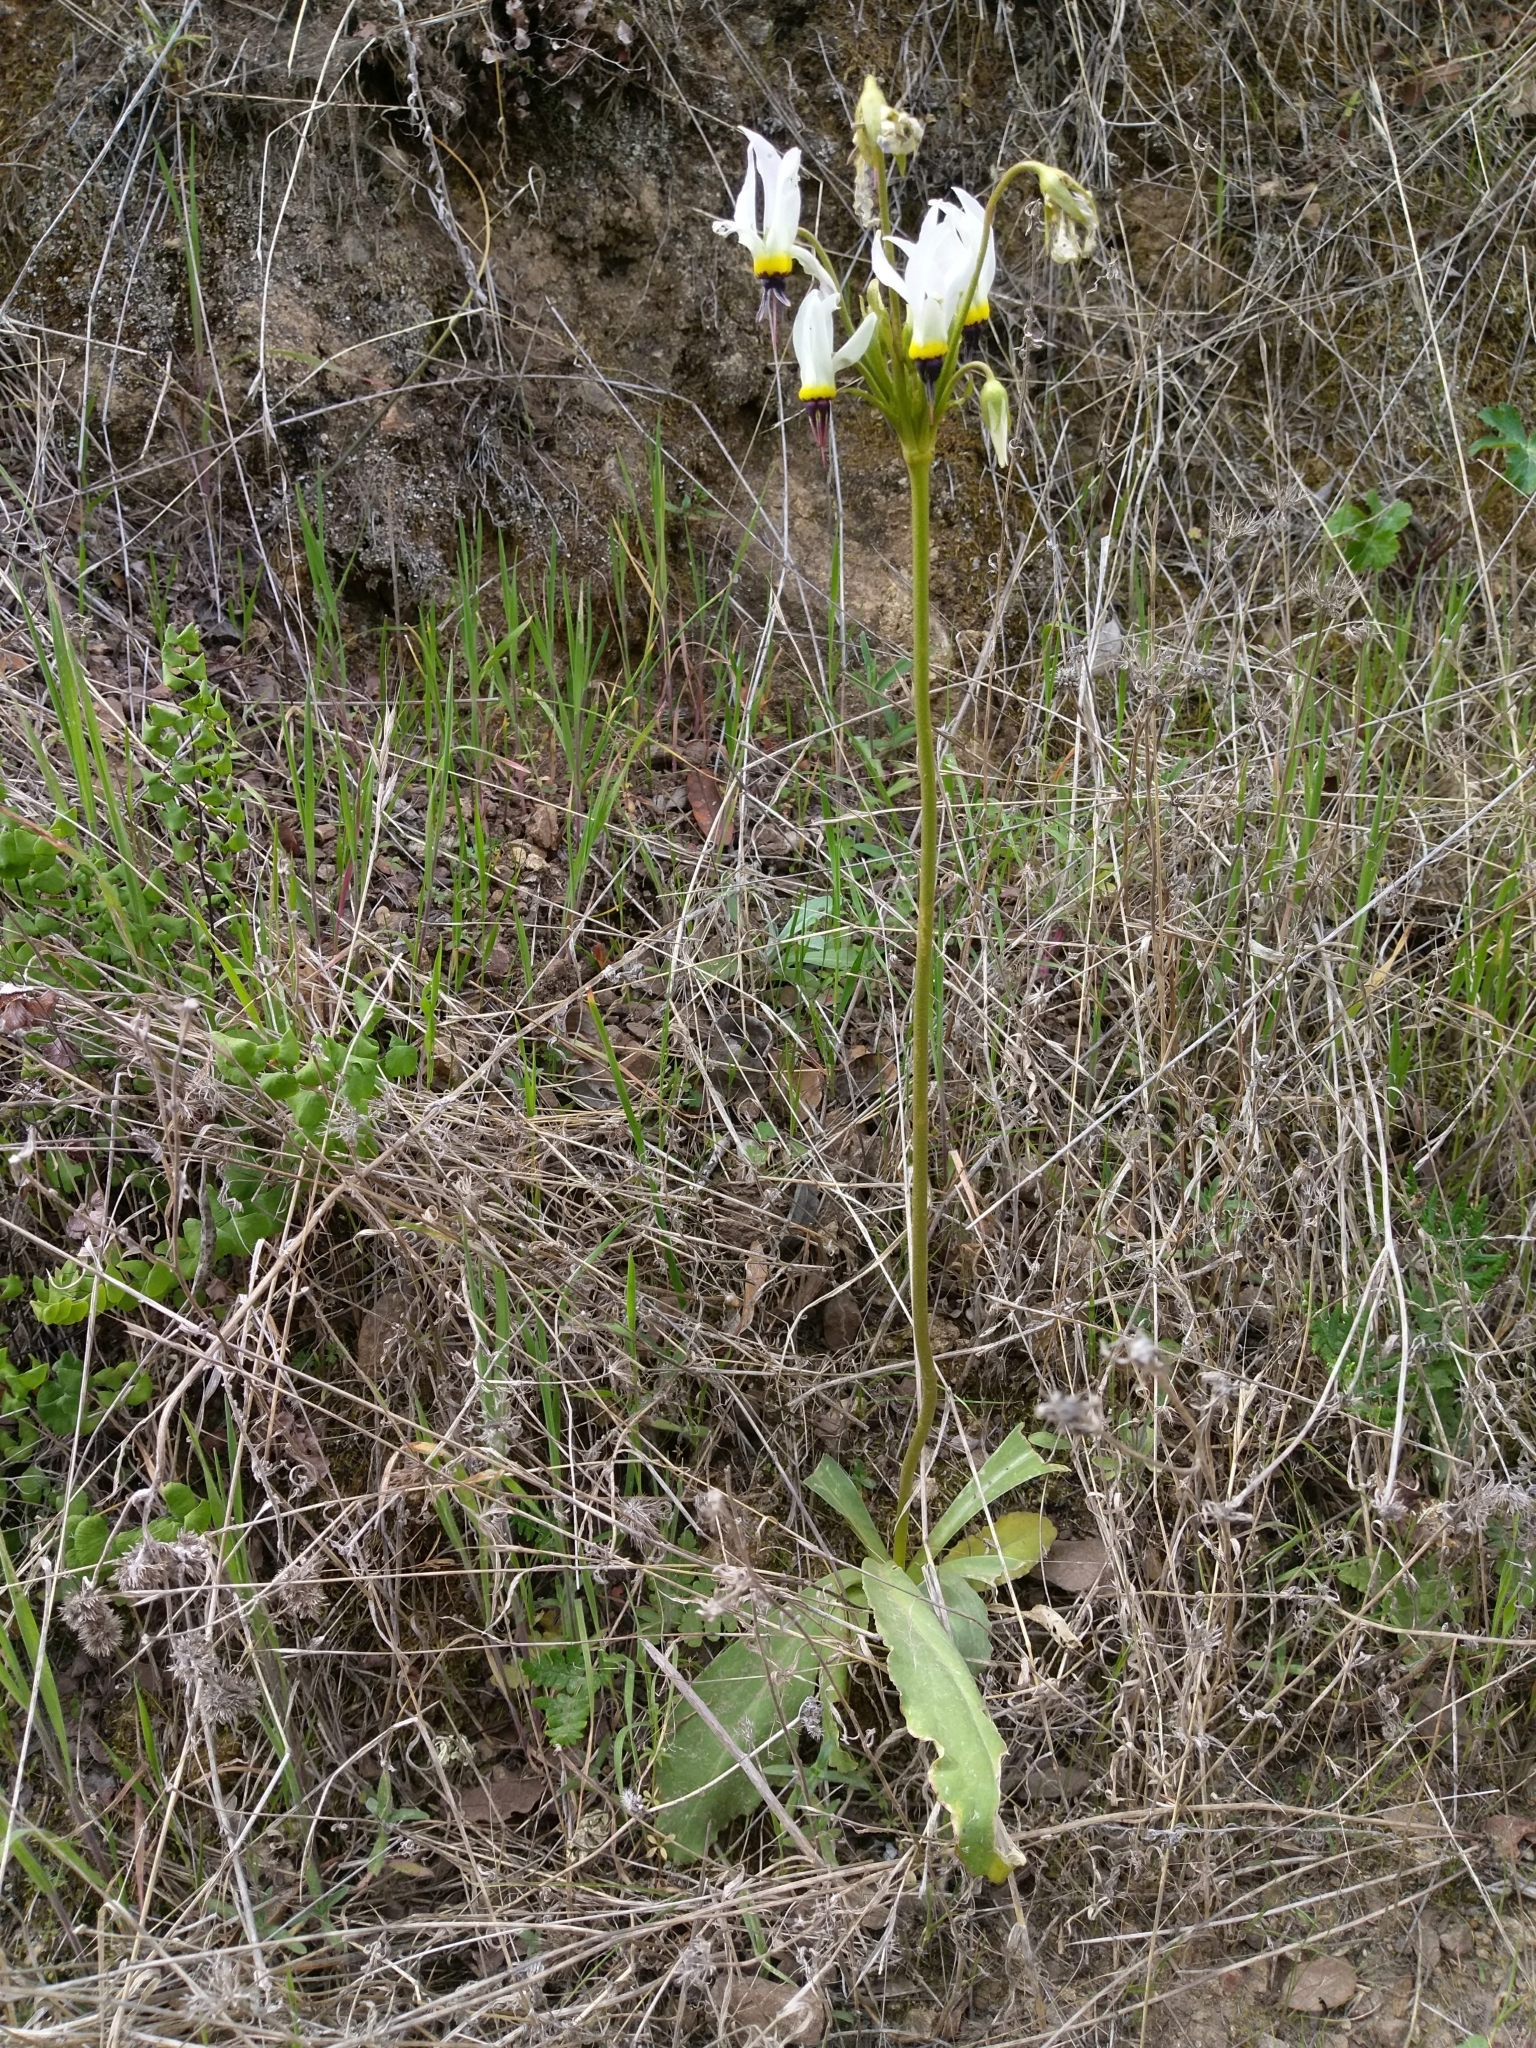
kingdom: Plantae
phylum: Tracheophyta
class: Magnoliopsida
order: Ericales
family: Primulaceae
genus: Dodecatheon
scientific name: Dodecatheon clevelandii
